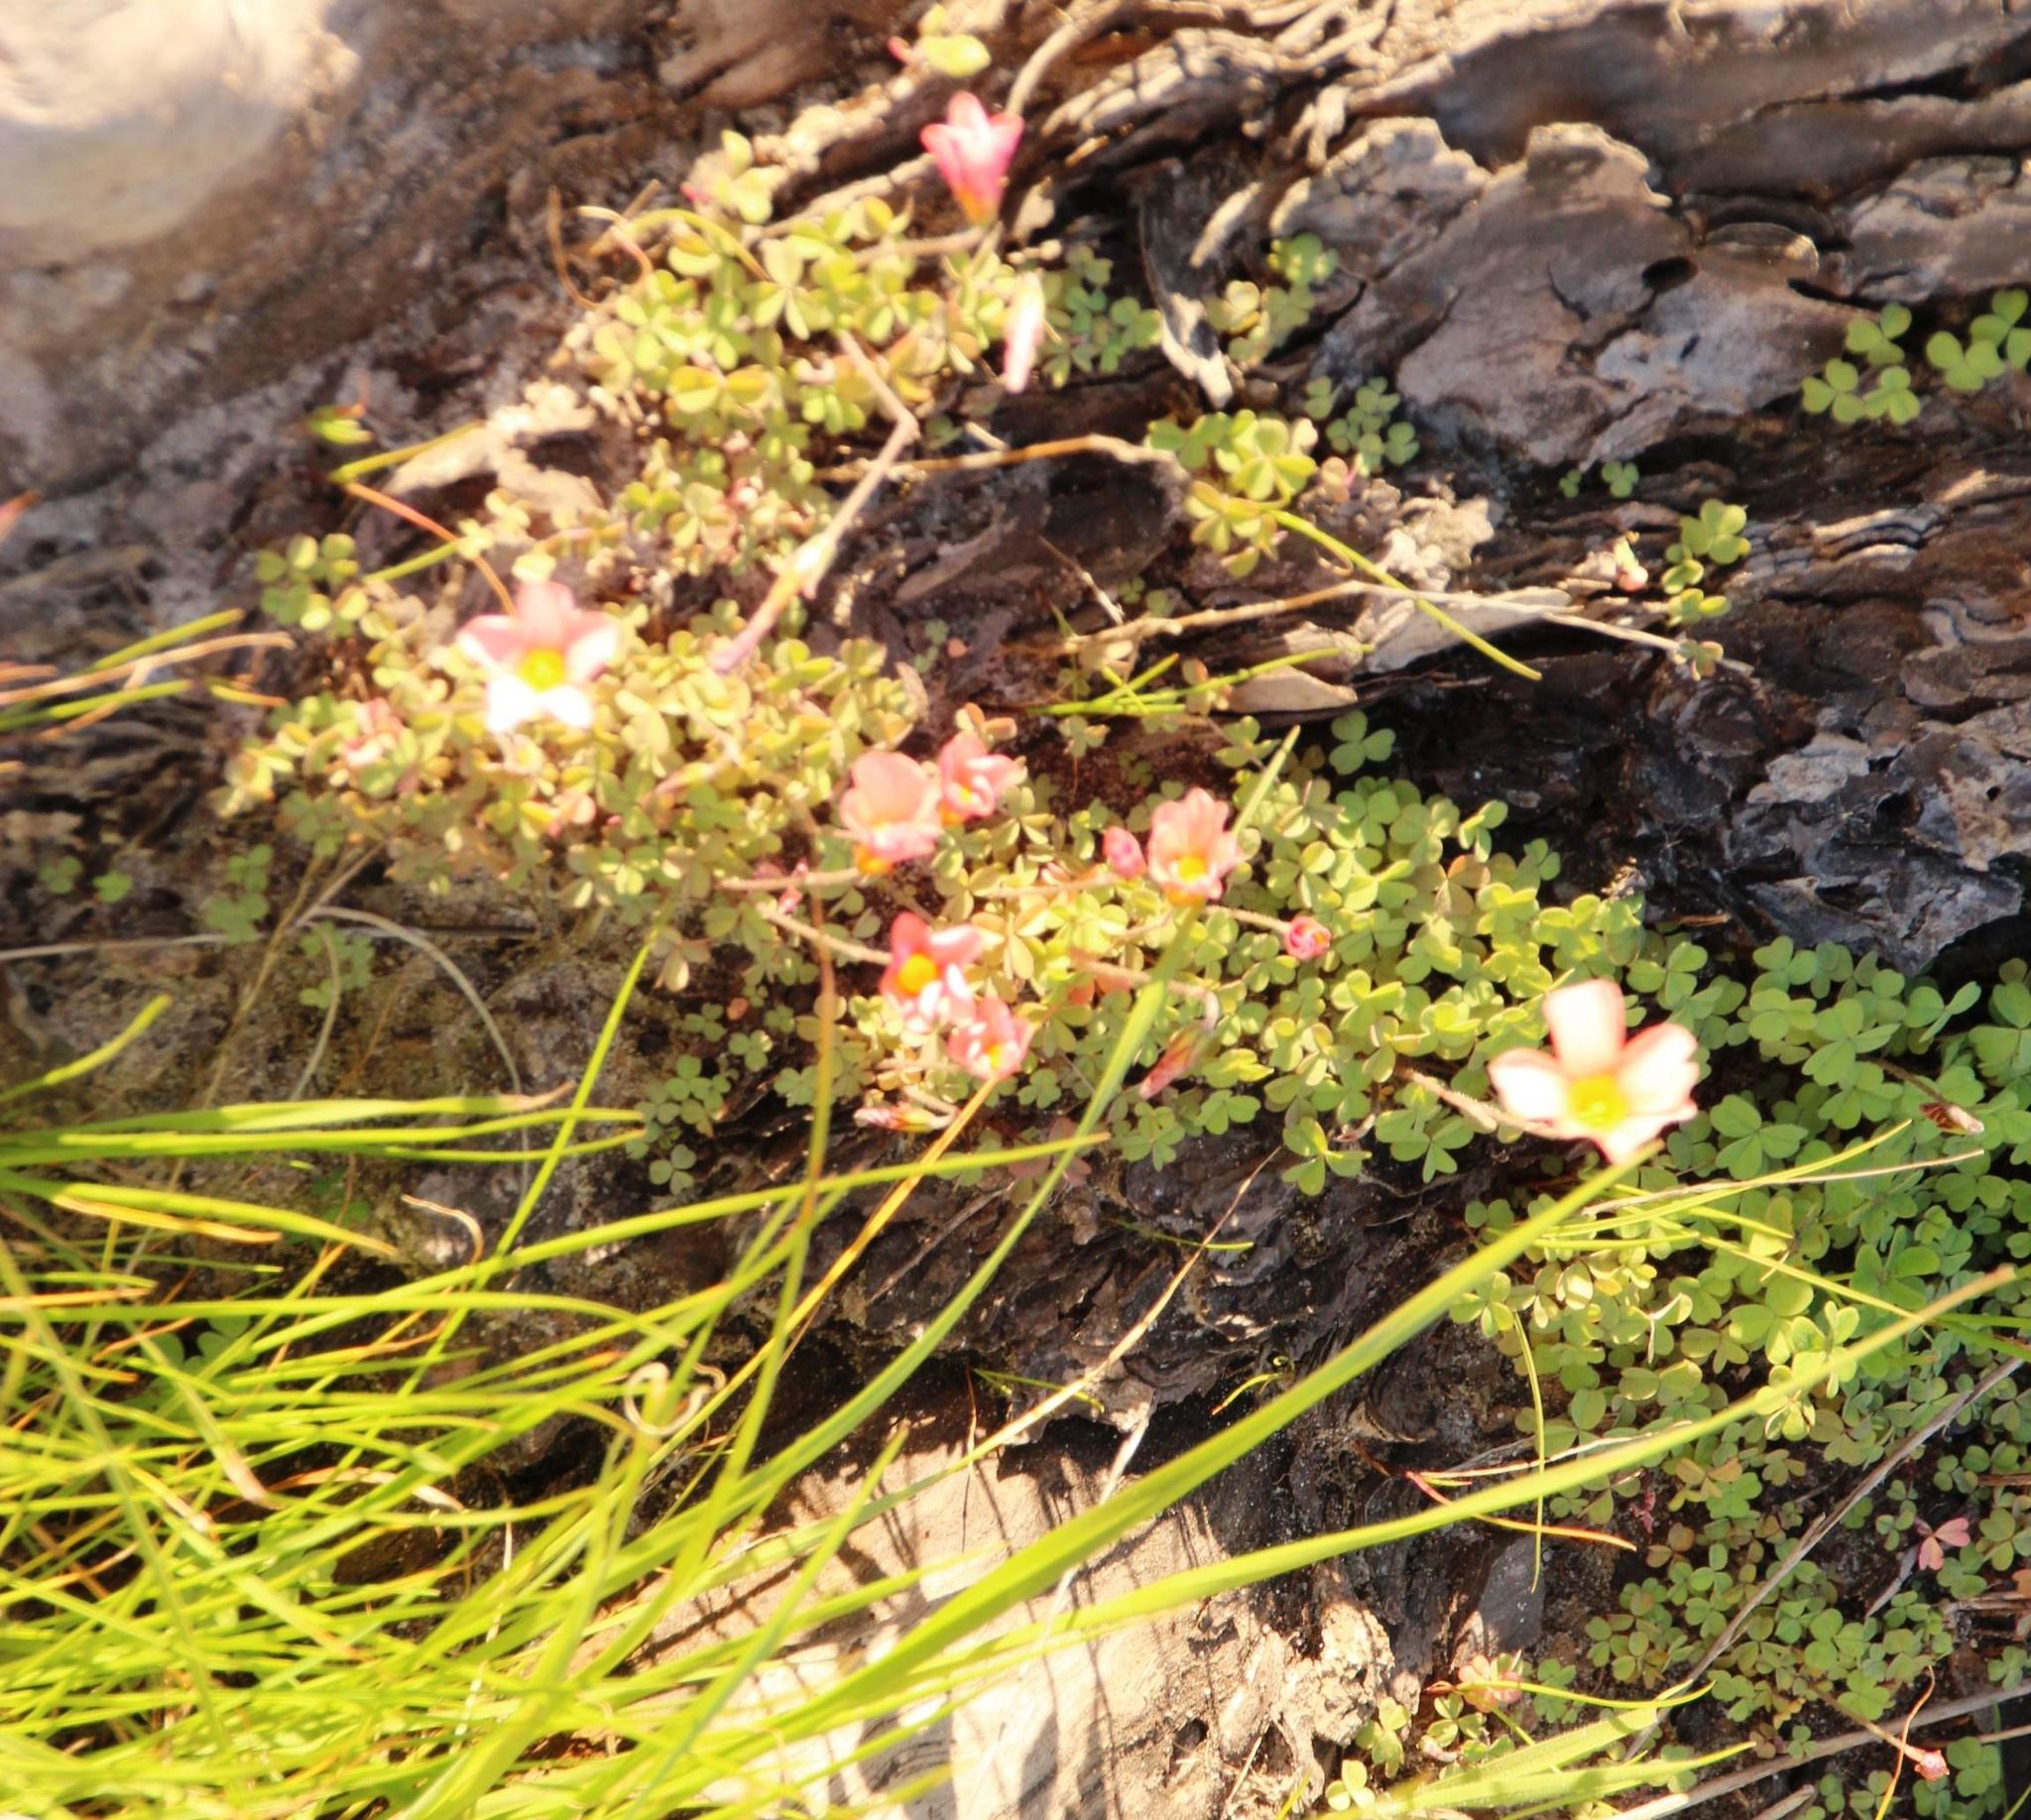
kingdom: Plantae
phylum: Tracheophyta
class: Magnoliopsida
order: Oxalidales
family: Oxalidaceae
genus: Oxalis
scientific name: Oxalis obtusa
